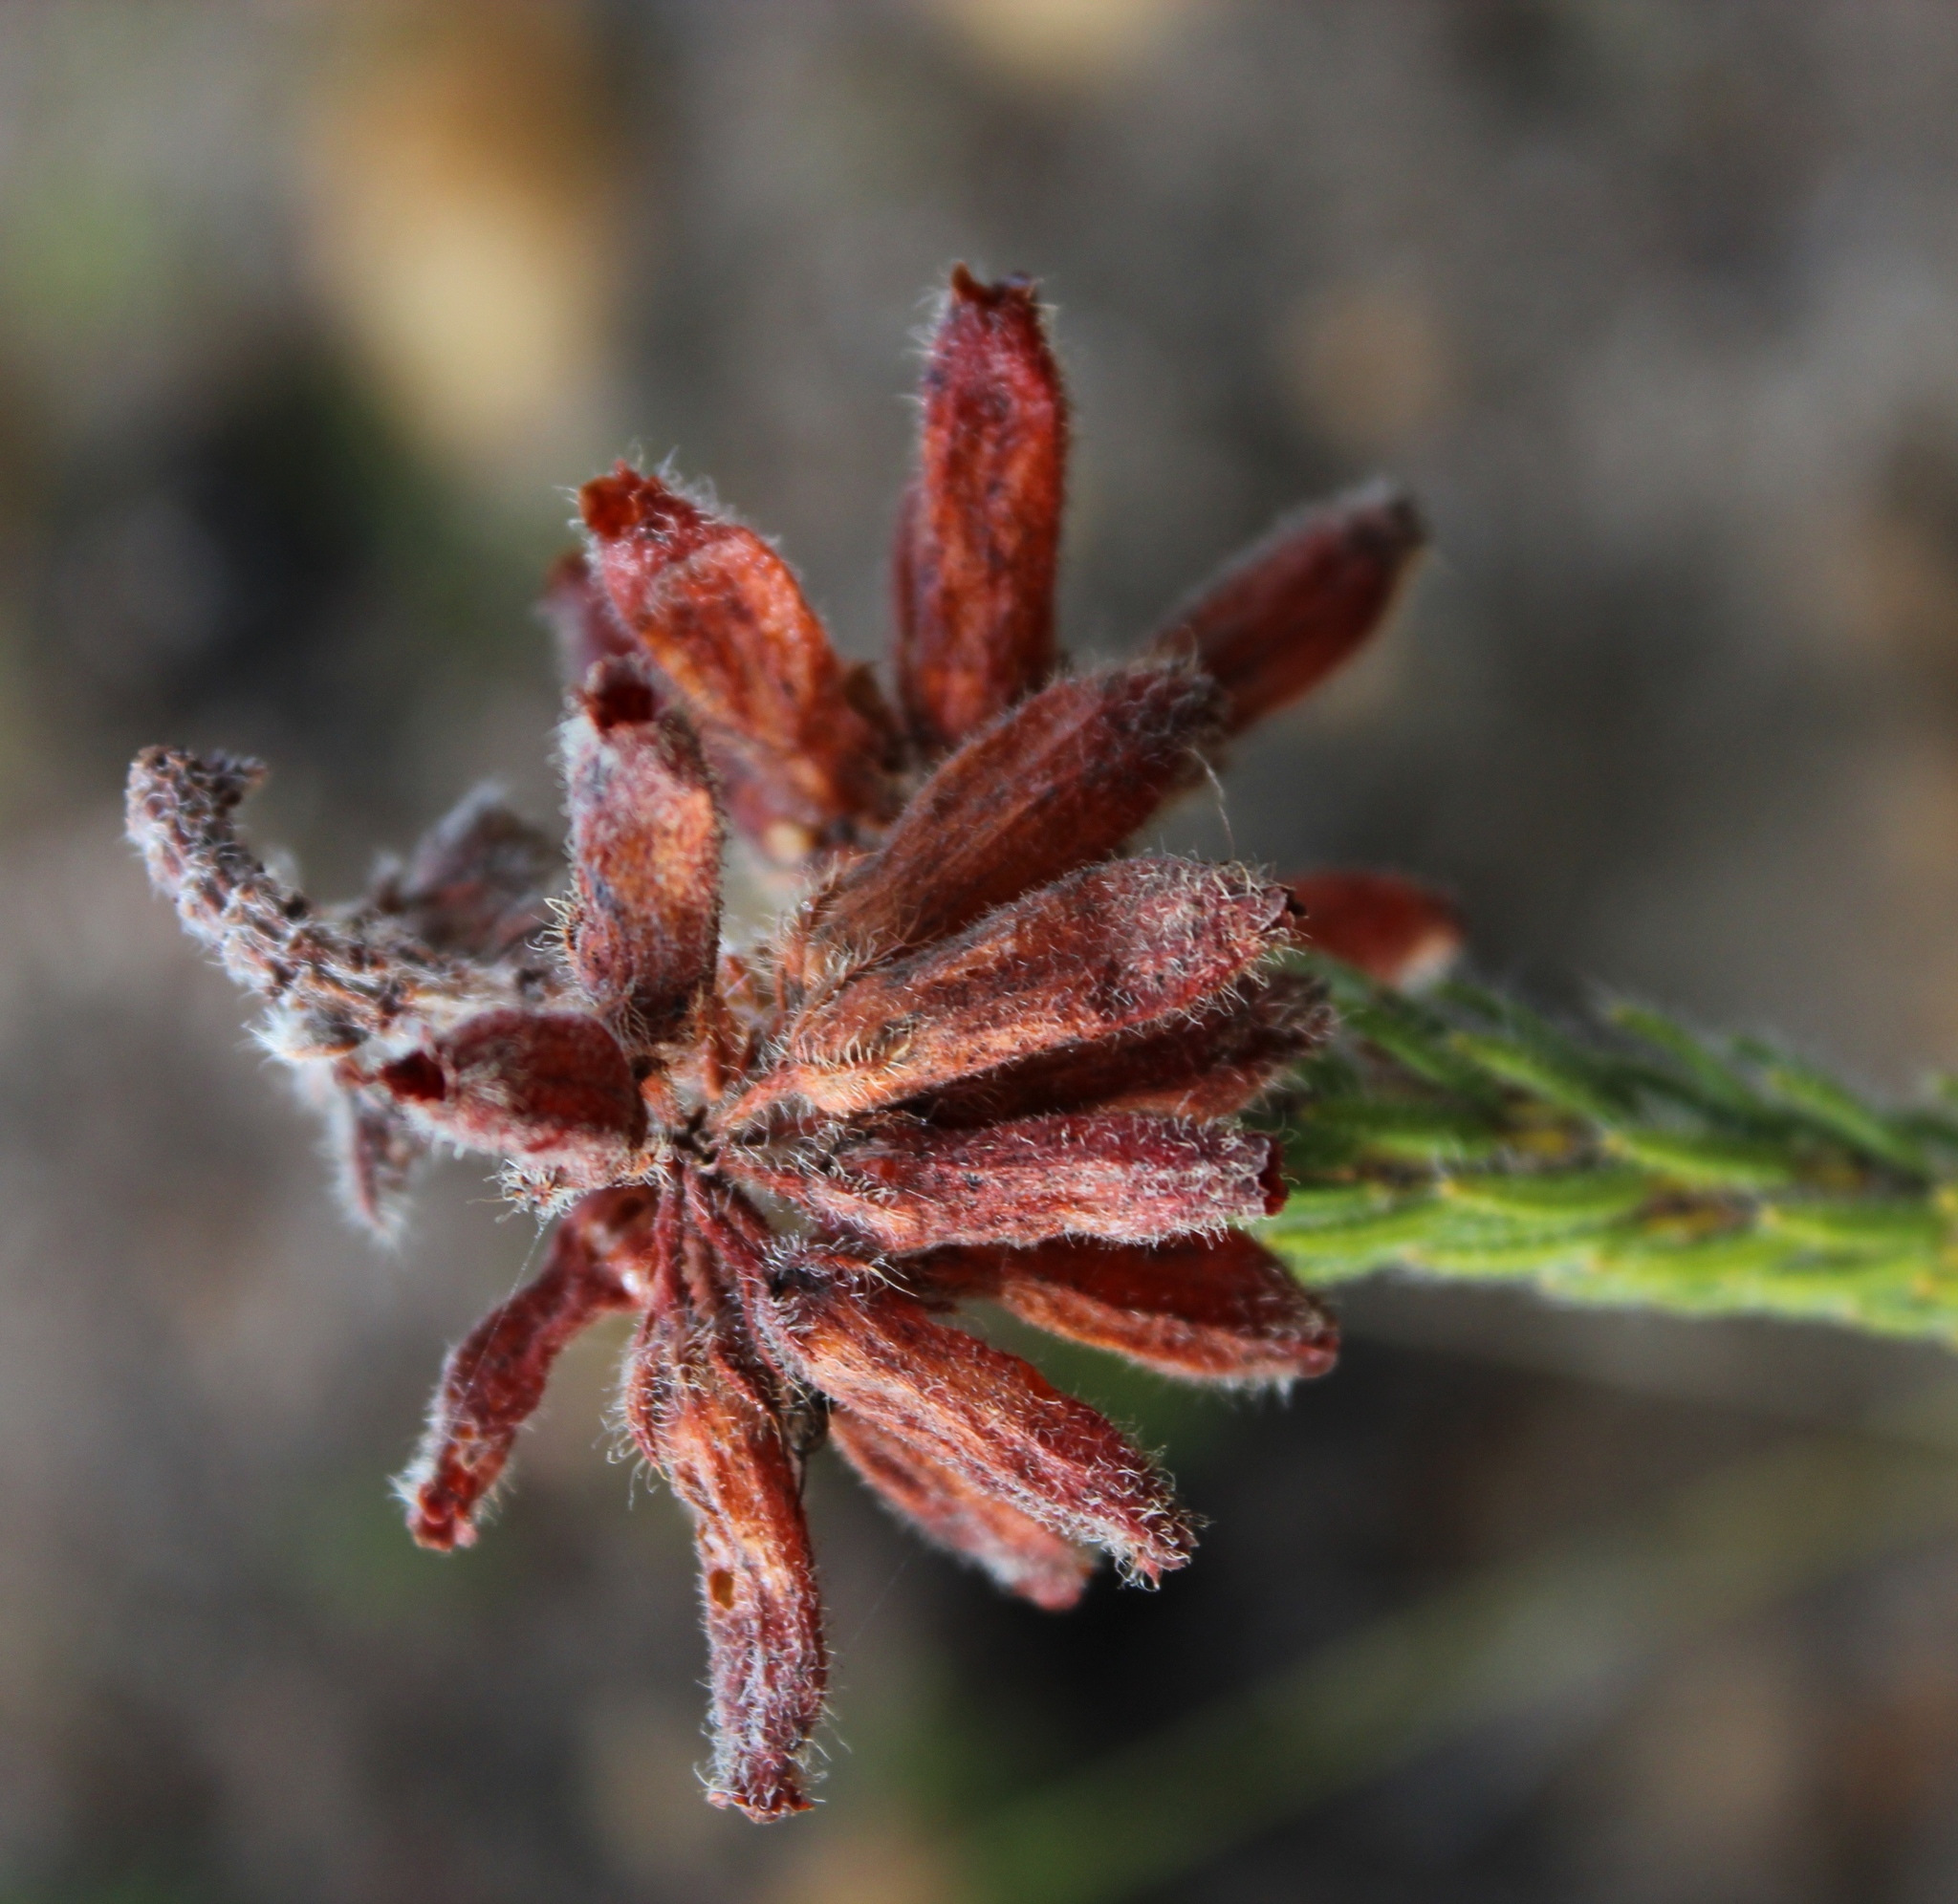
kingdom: Plantae
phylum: Tracheophyta
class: Magnoliopsida
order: Ericales
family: Ericaceae
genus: Erica
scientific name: Erica cerinthoides
